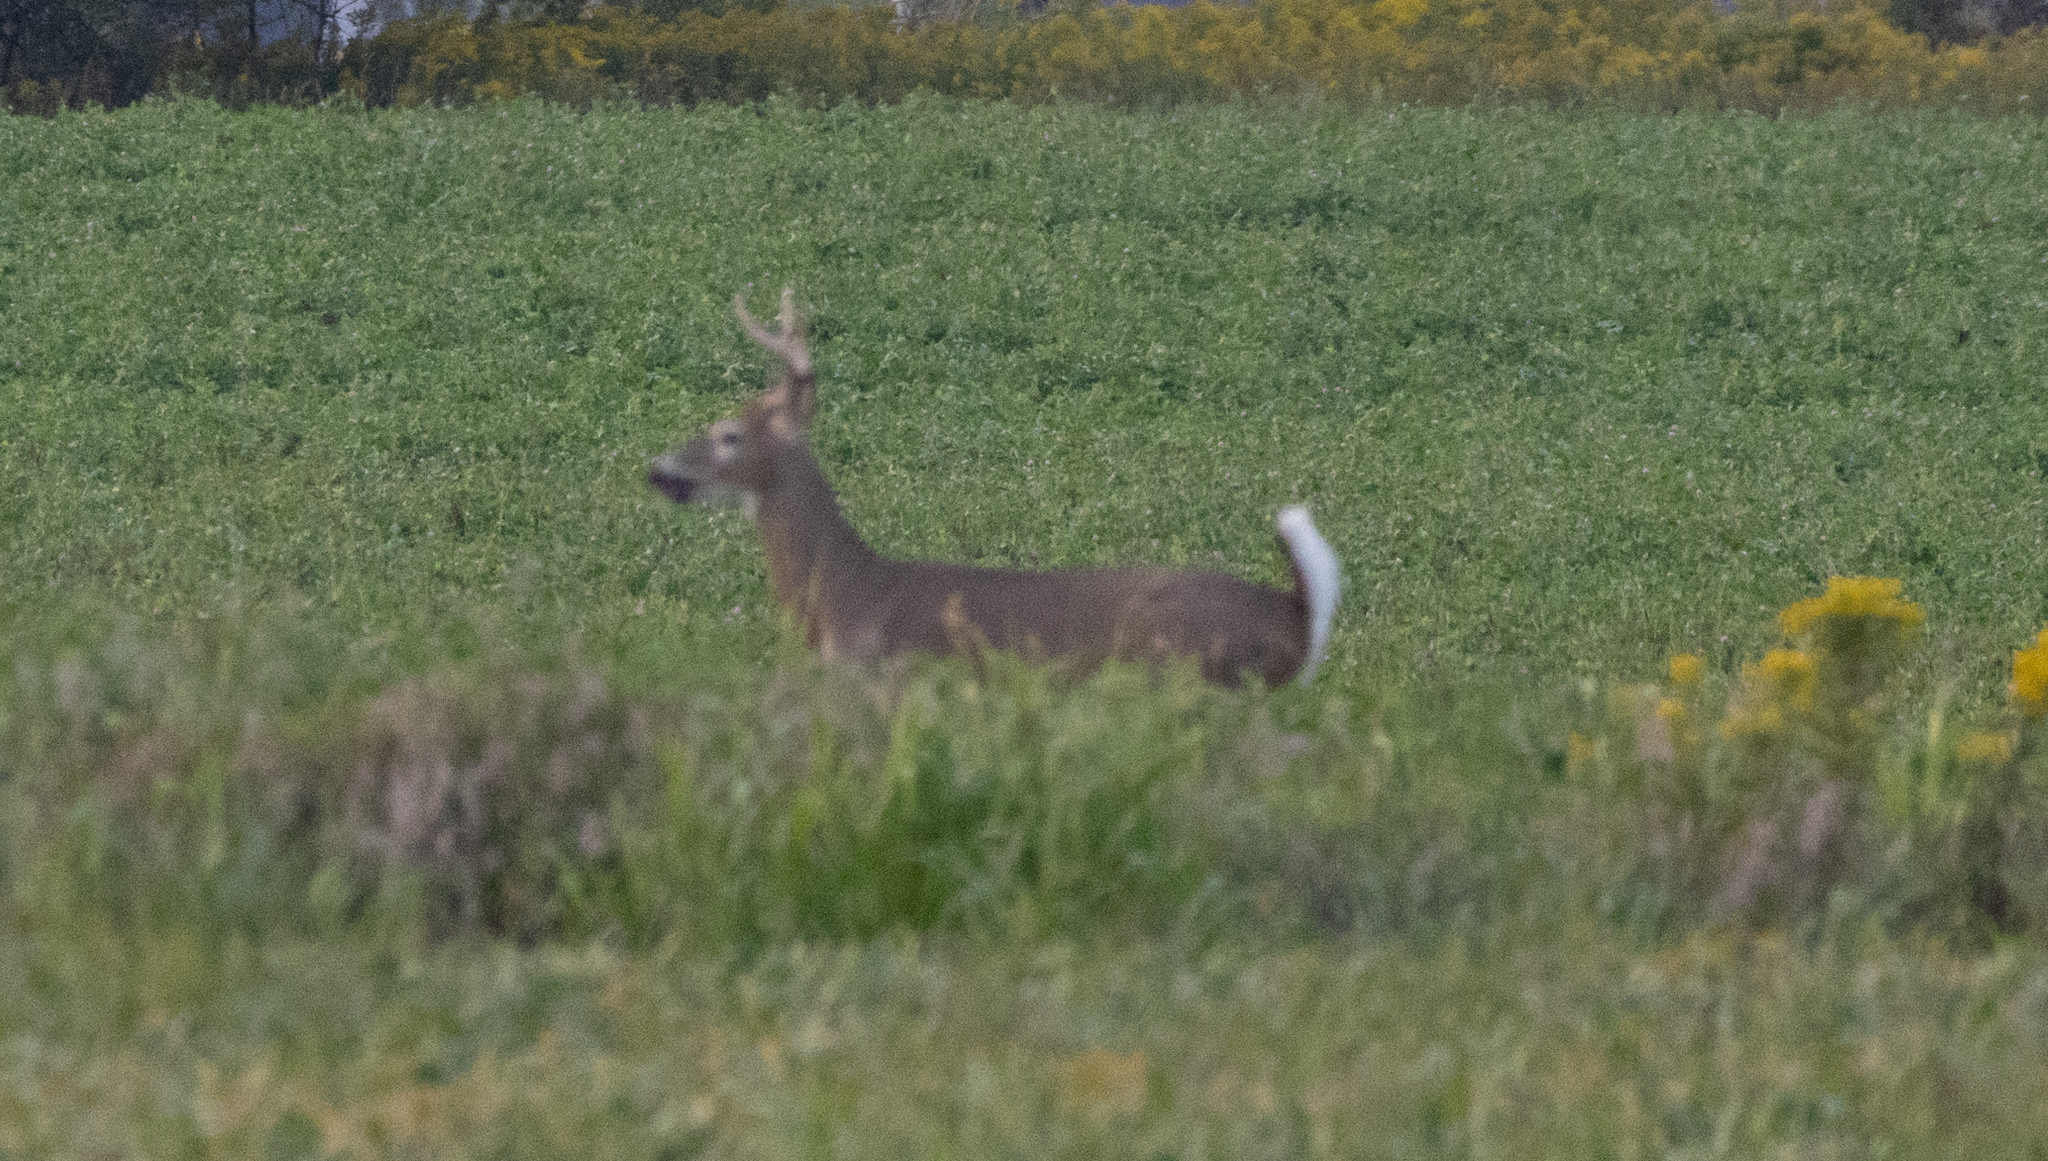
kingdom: Animalia
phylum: Chordata
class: Mammalia
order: Artiodactyla
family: Cervidae
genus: Odocoileus
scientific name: Odocoileus virginianus
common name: White-tailed deer
